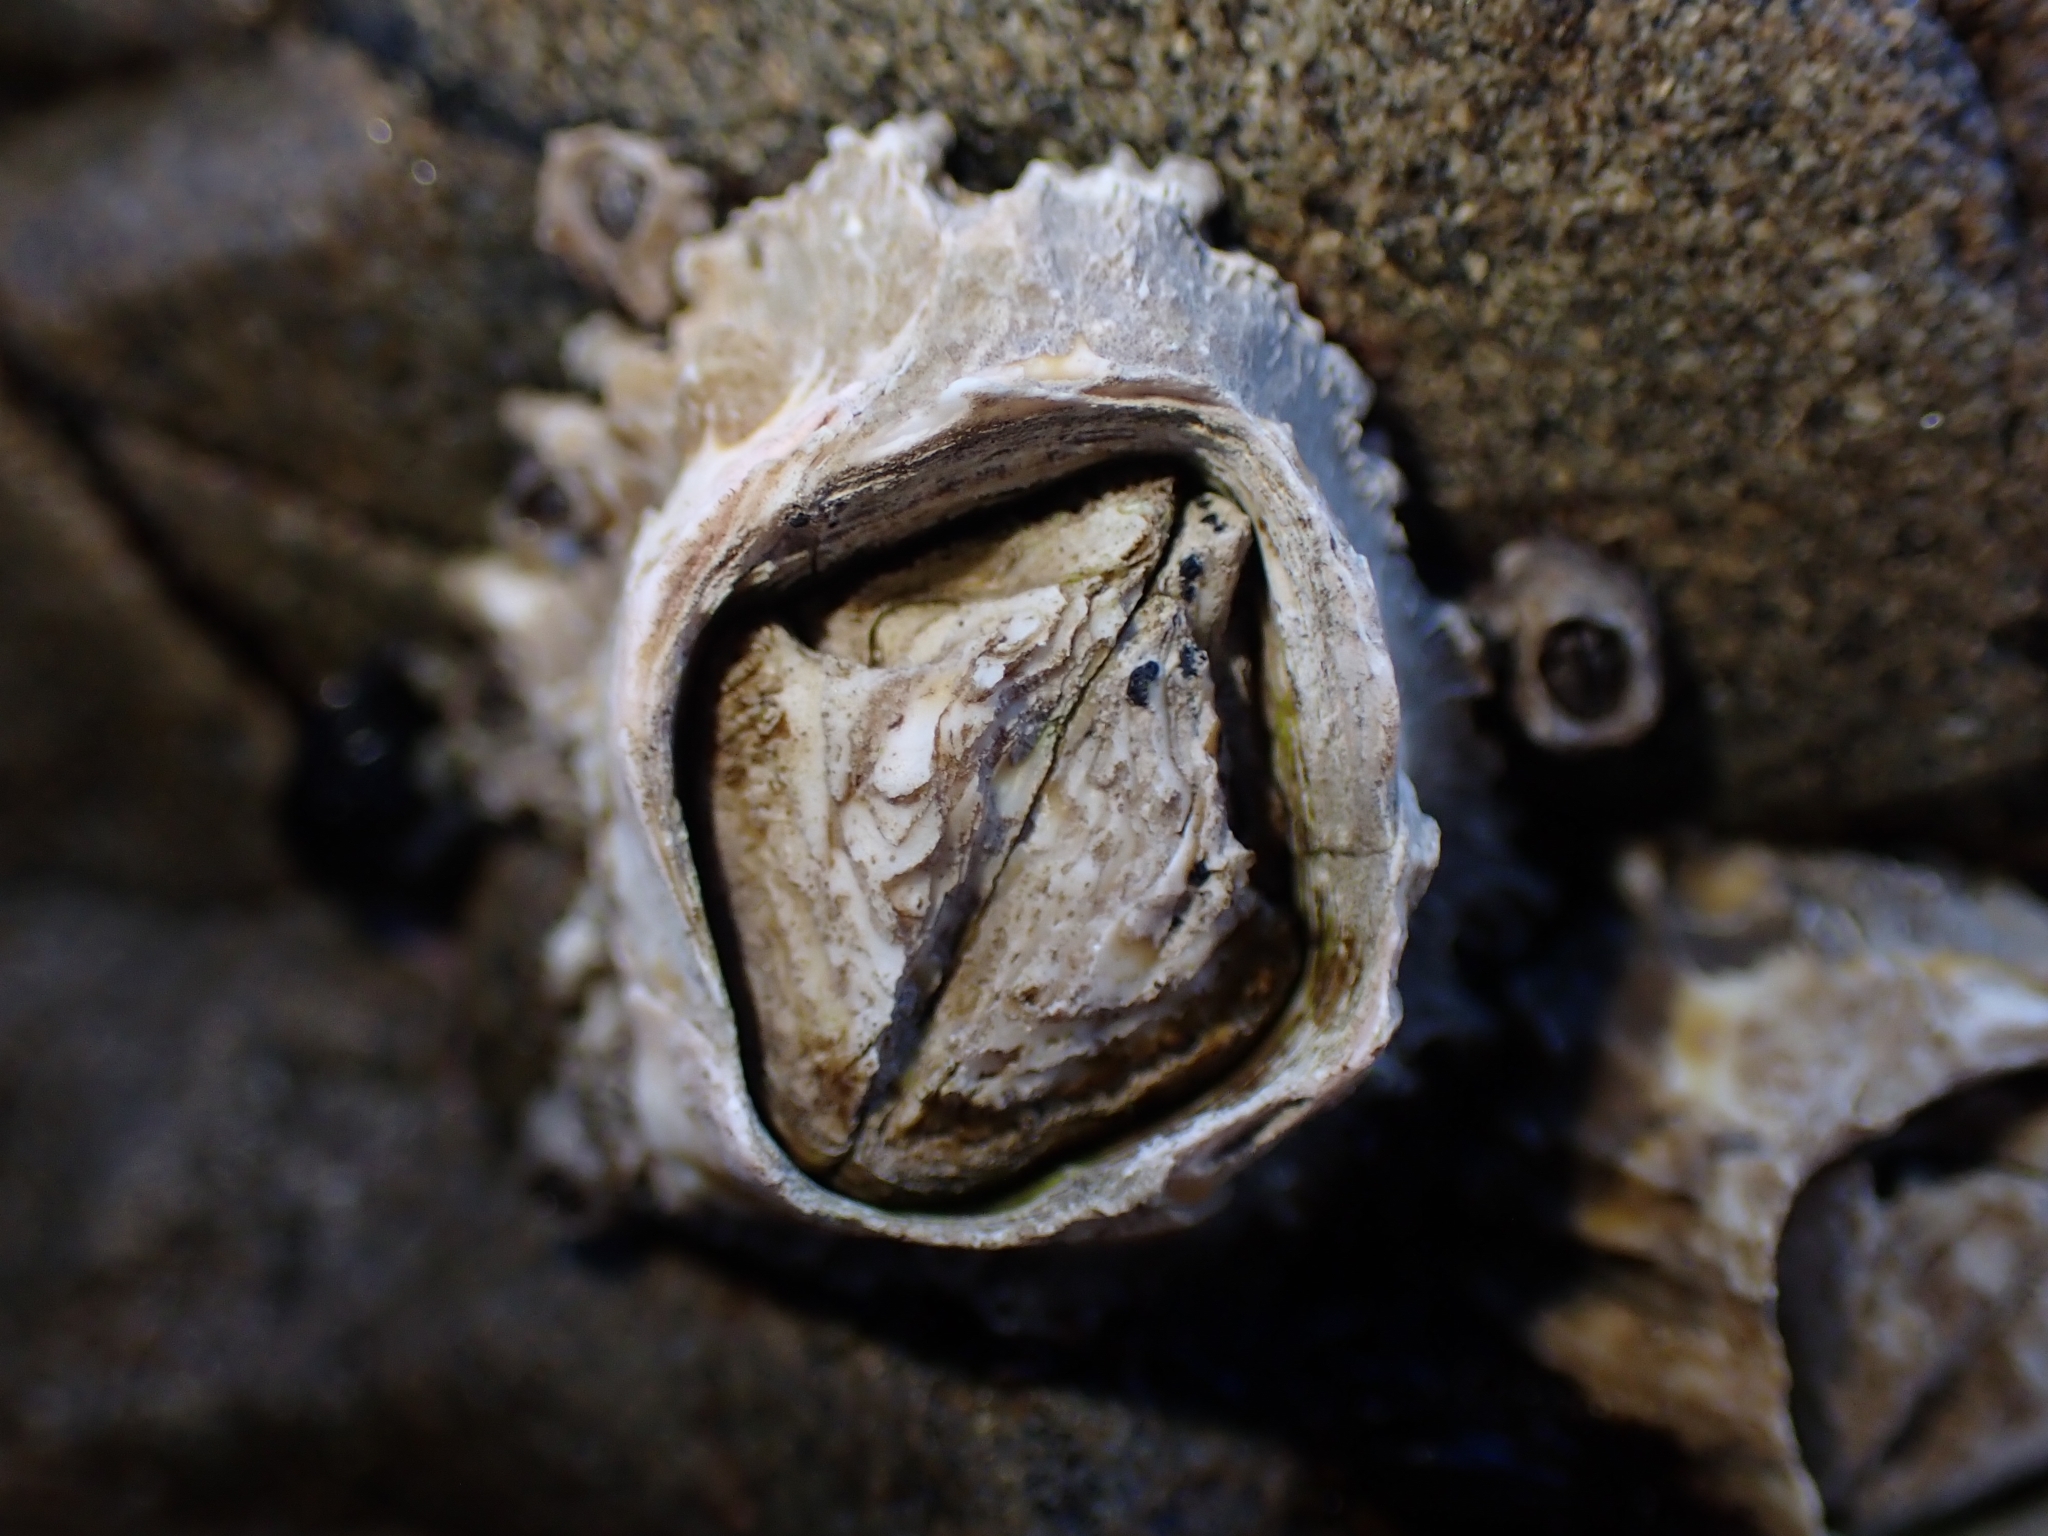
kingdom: Animalia
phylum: Arthropoda
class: Maxillopoda
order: Sessilia
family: Tetraclitidae
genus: Epopella
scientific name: Epopella plicata
